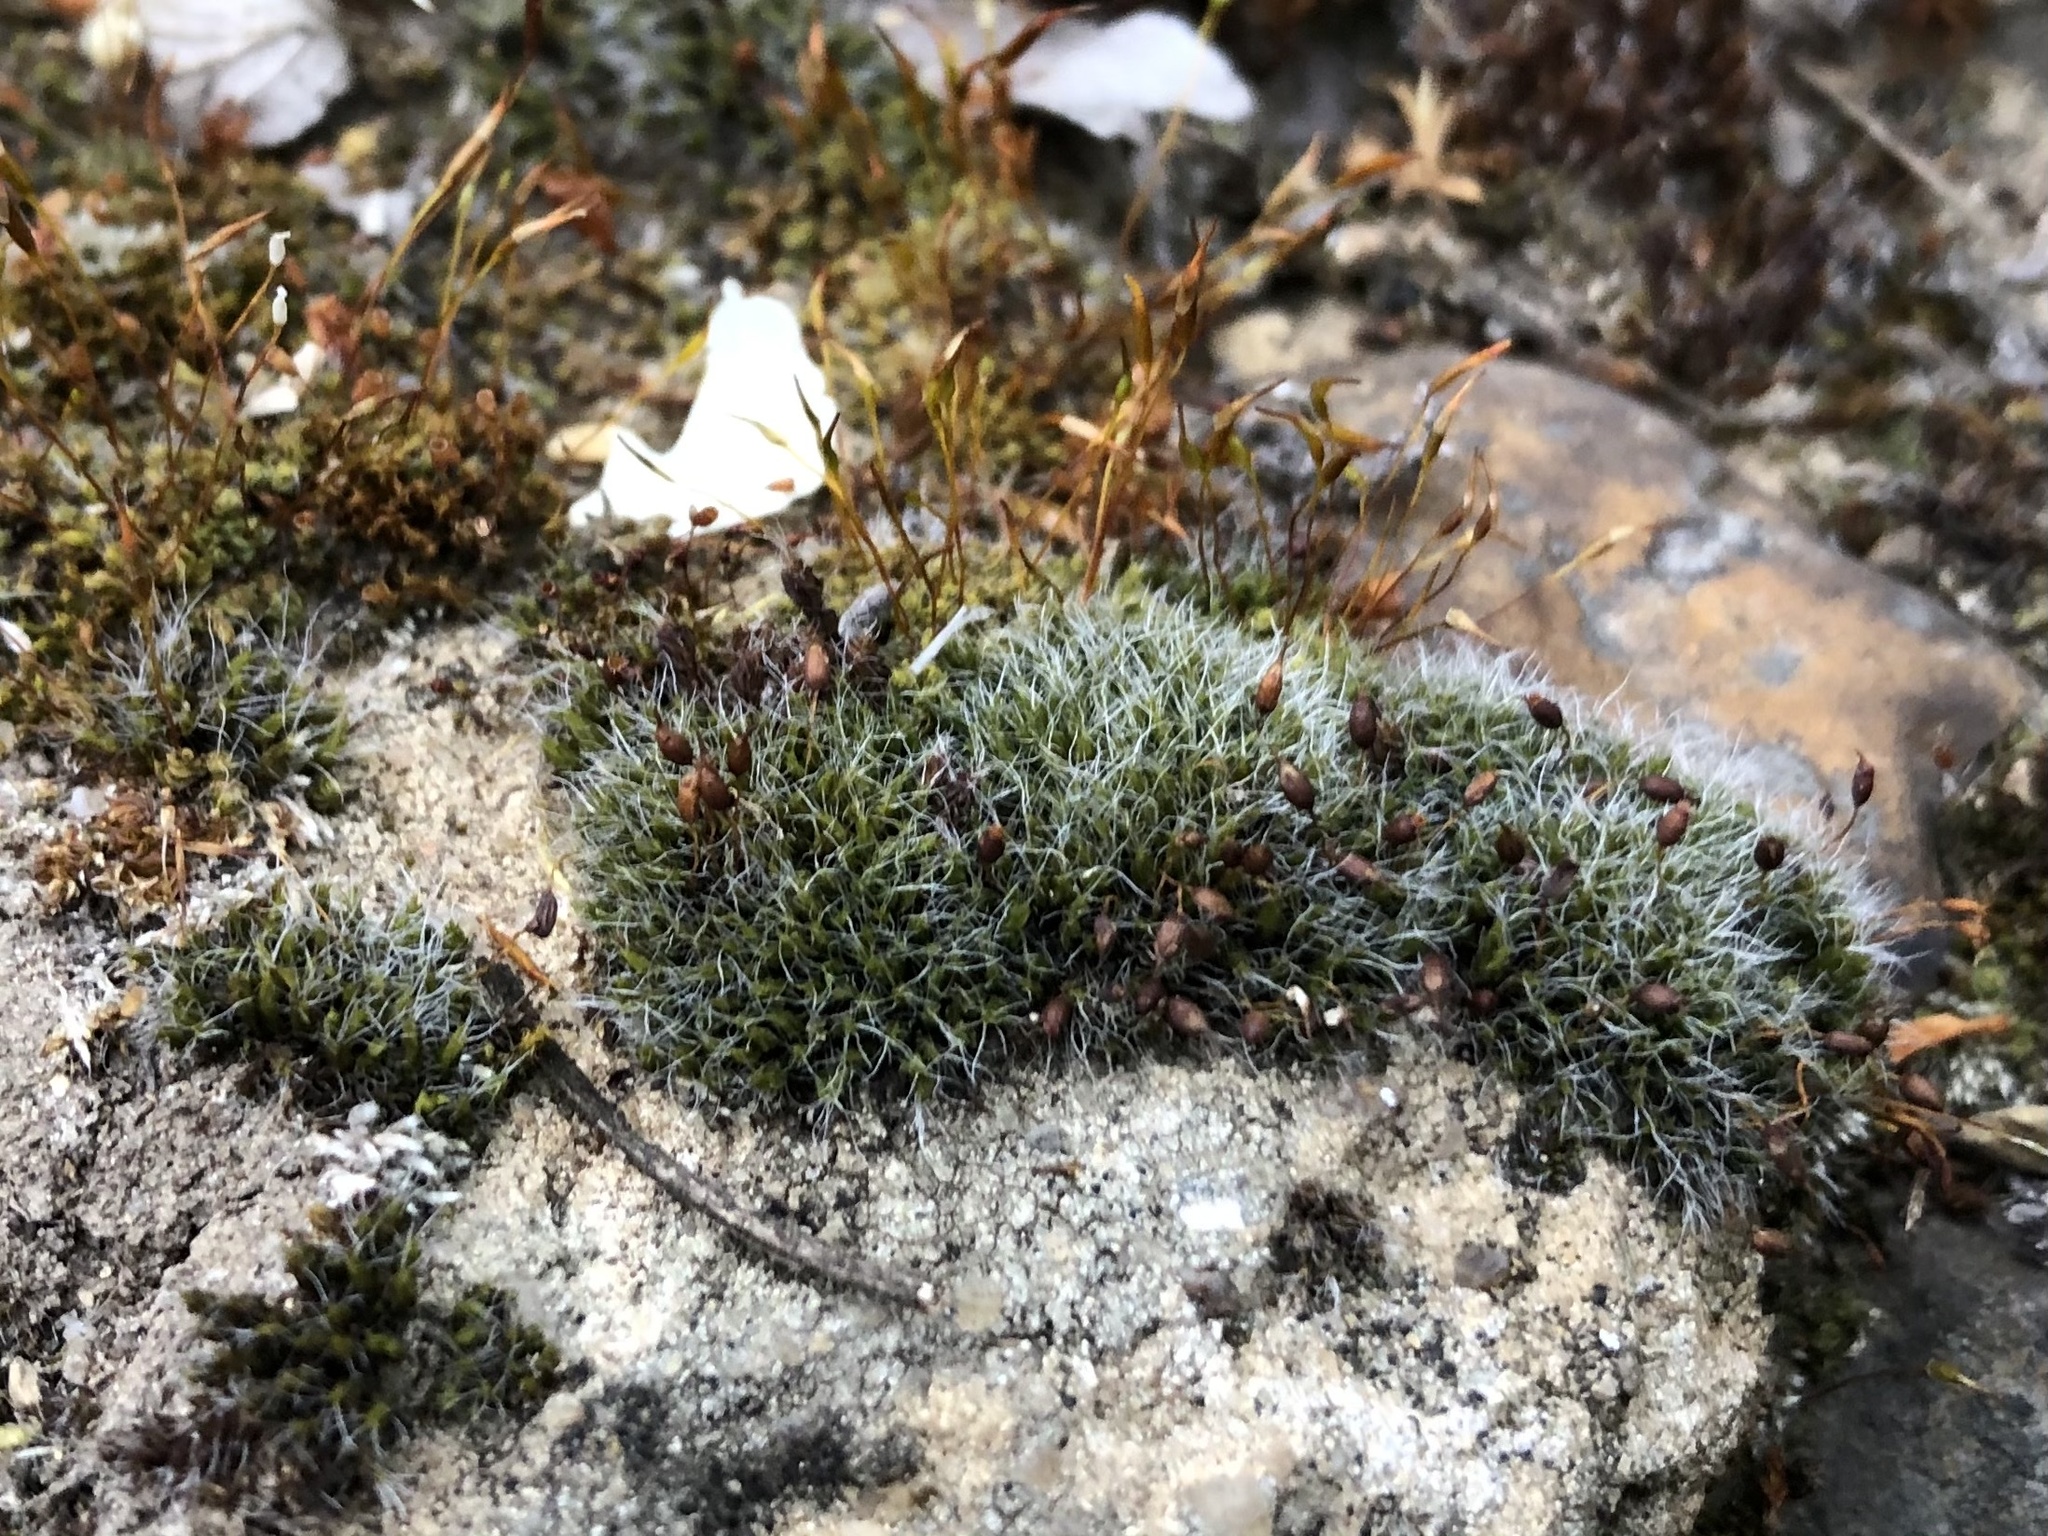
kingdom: Plantae
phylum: Bryophyta
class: Bryopsida
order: Grimmiales
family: Grimmiaceae
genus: Grimmia
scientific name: Grimmia pulvinata
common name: Grey-cushioned grimmia
